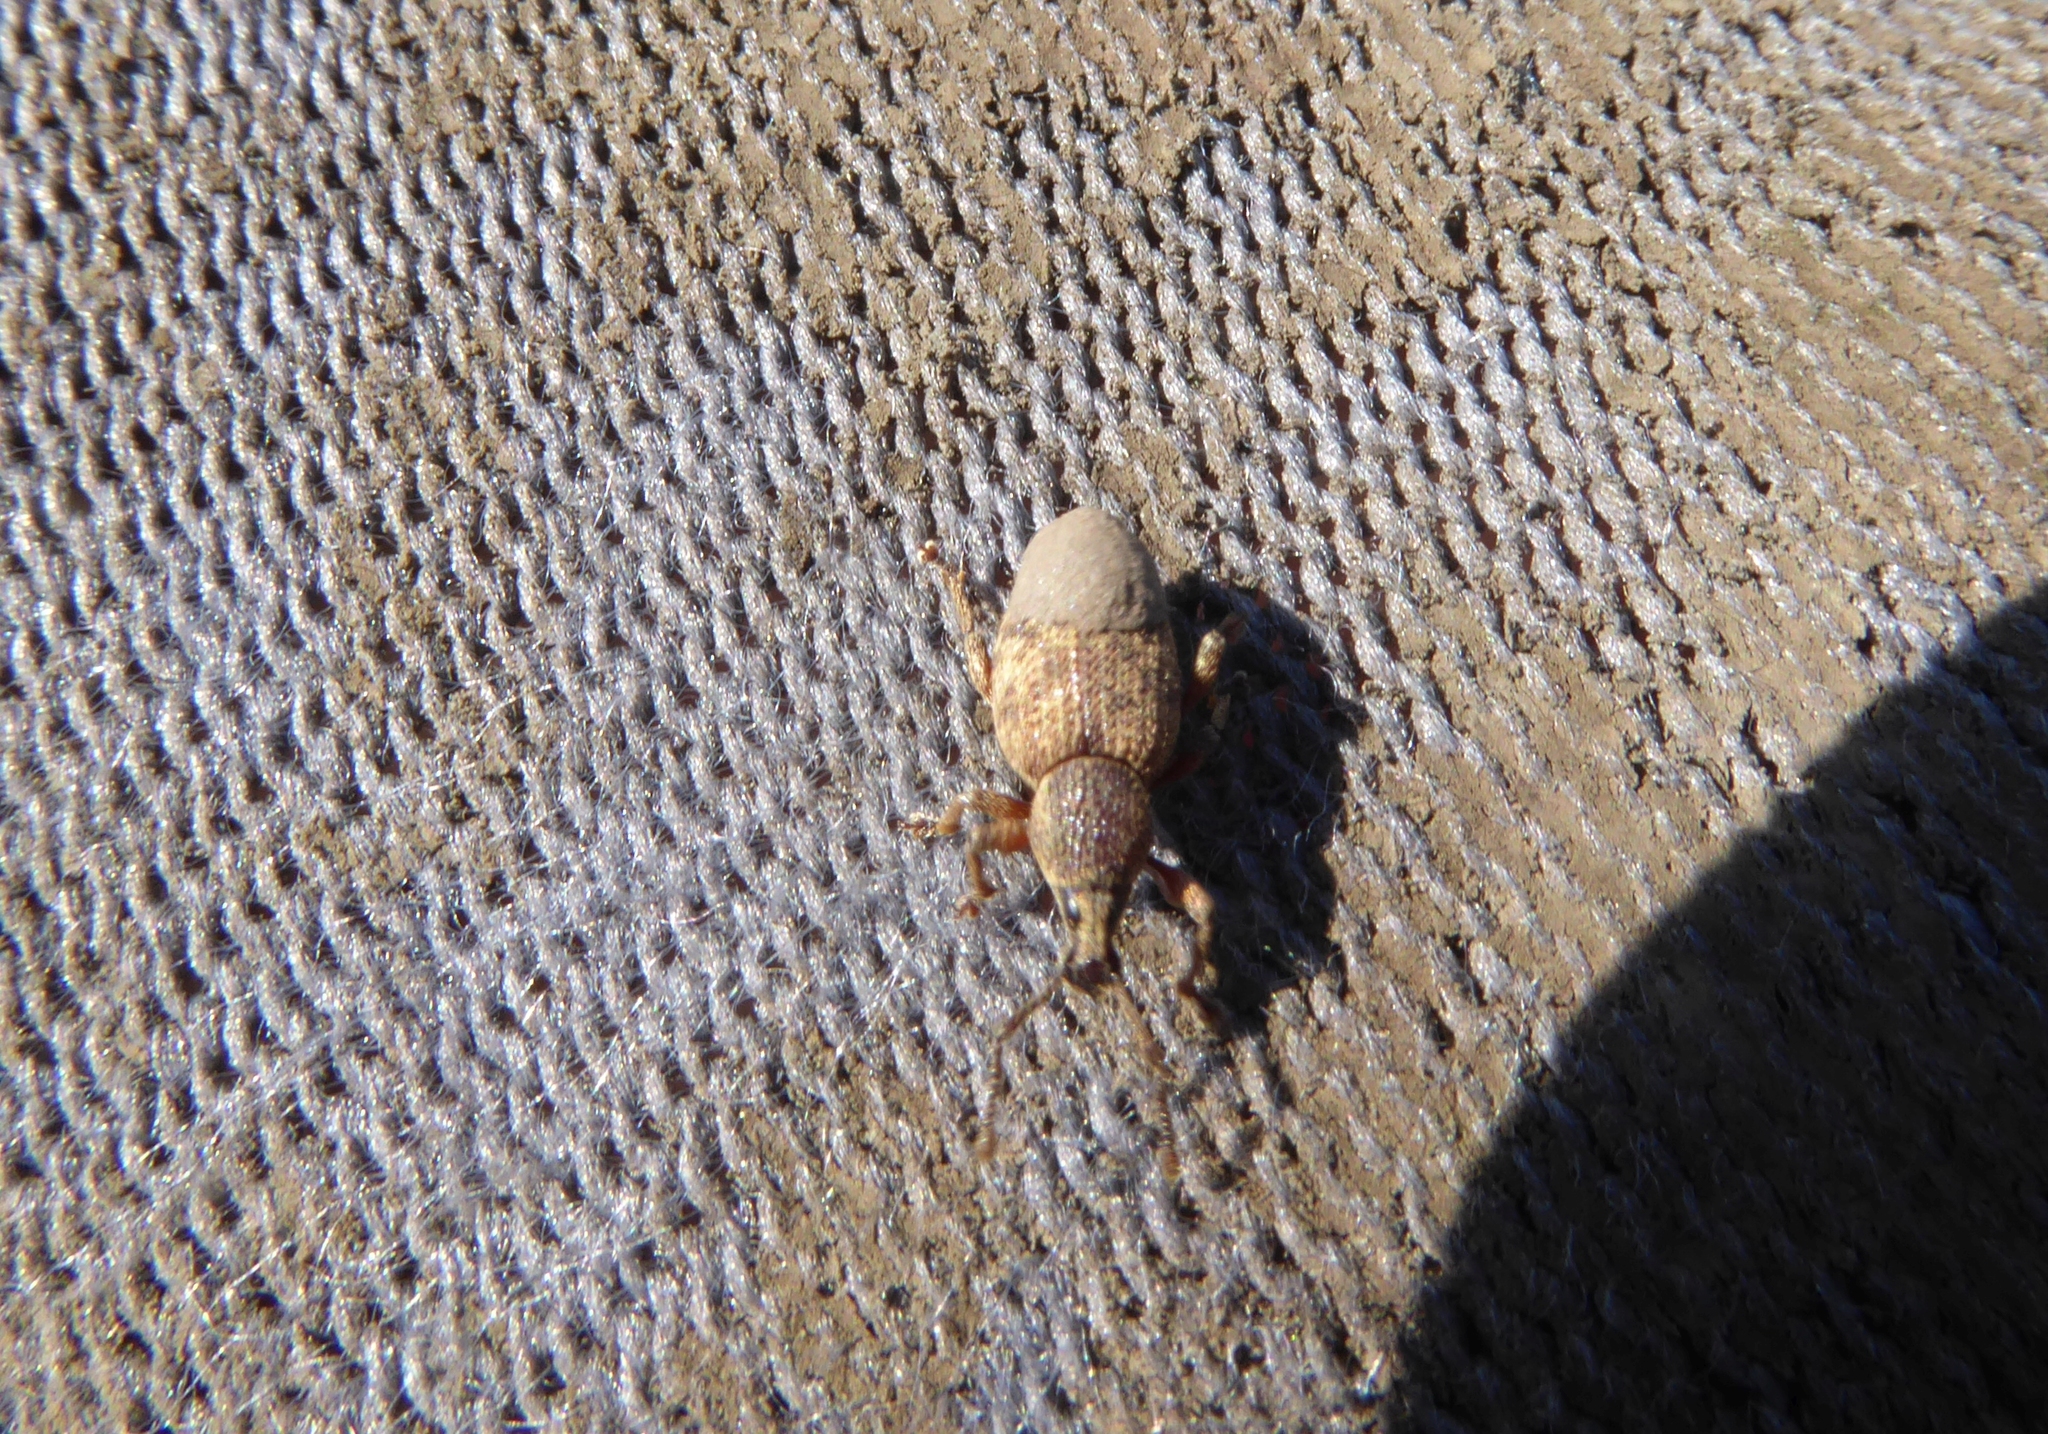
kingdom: Animalia
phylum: Arthropoda
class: Insecta
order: Coleoptera
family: Curculionidae
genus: Otiorhynchus
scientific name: Otiorhynchus singularis
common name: Clay-coloured weevil
